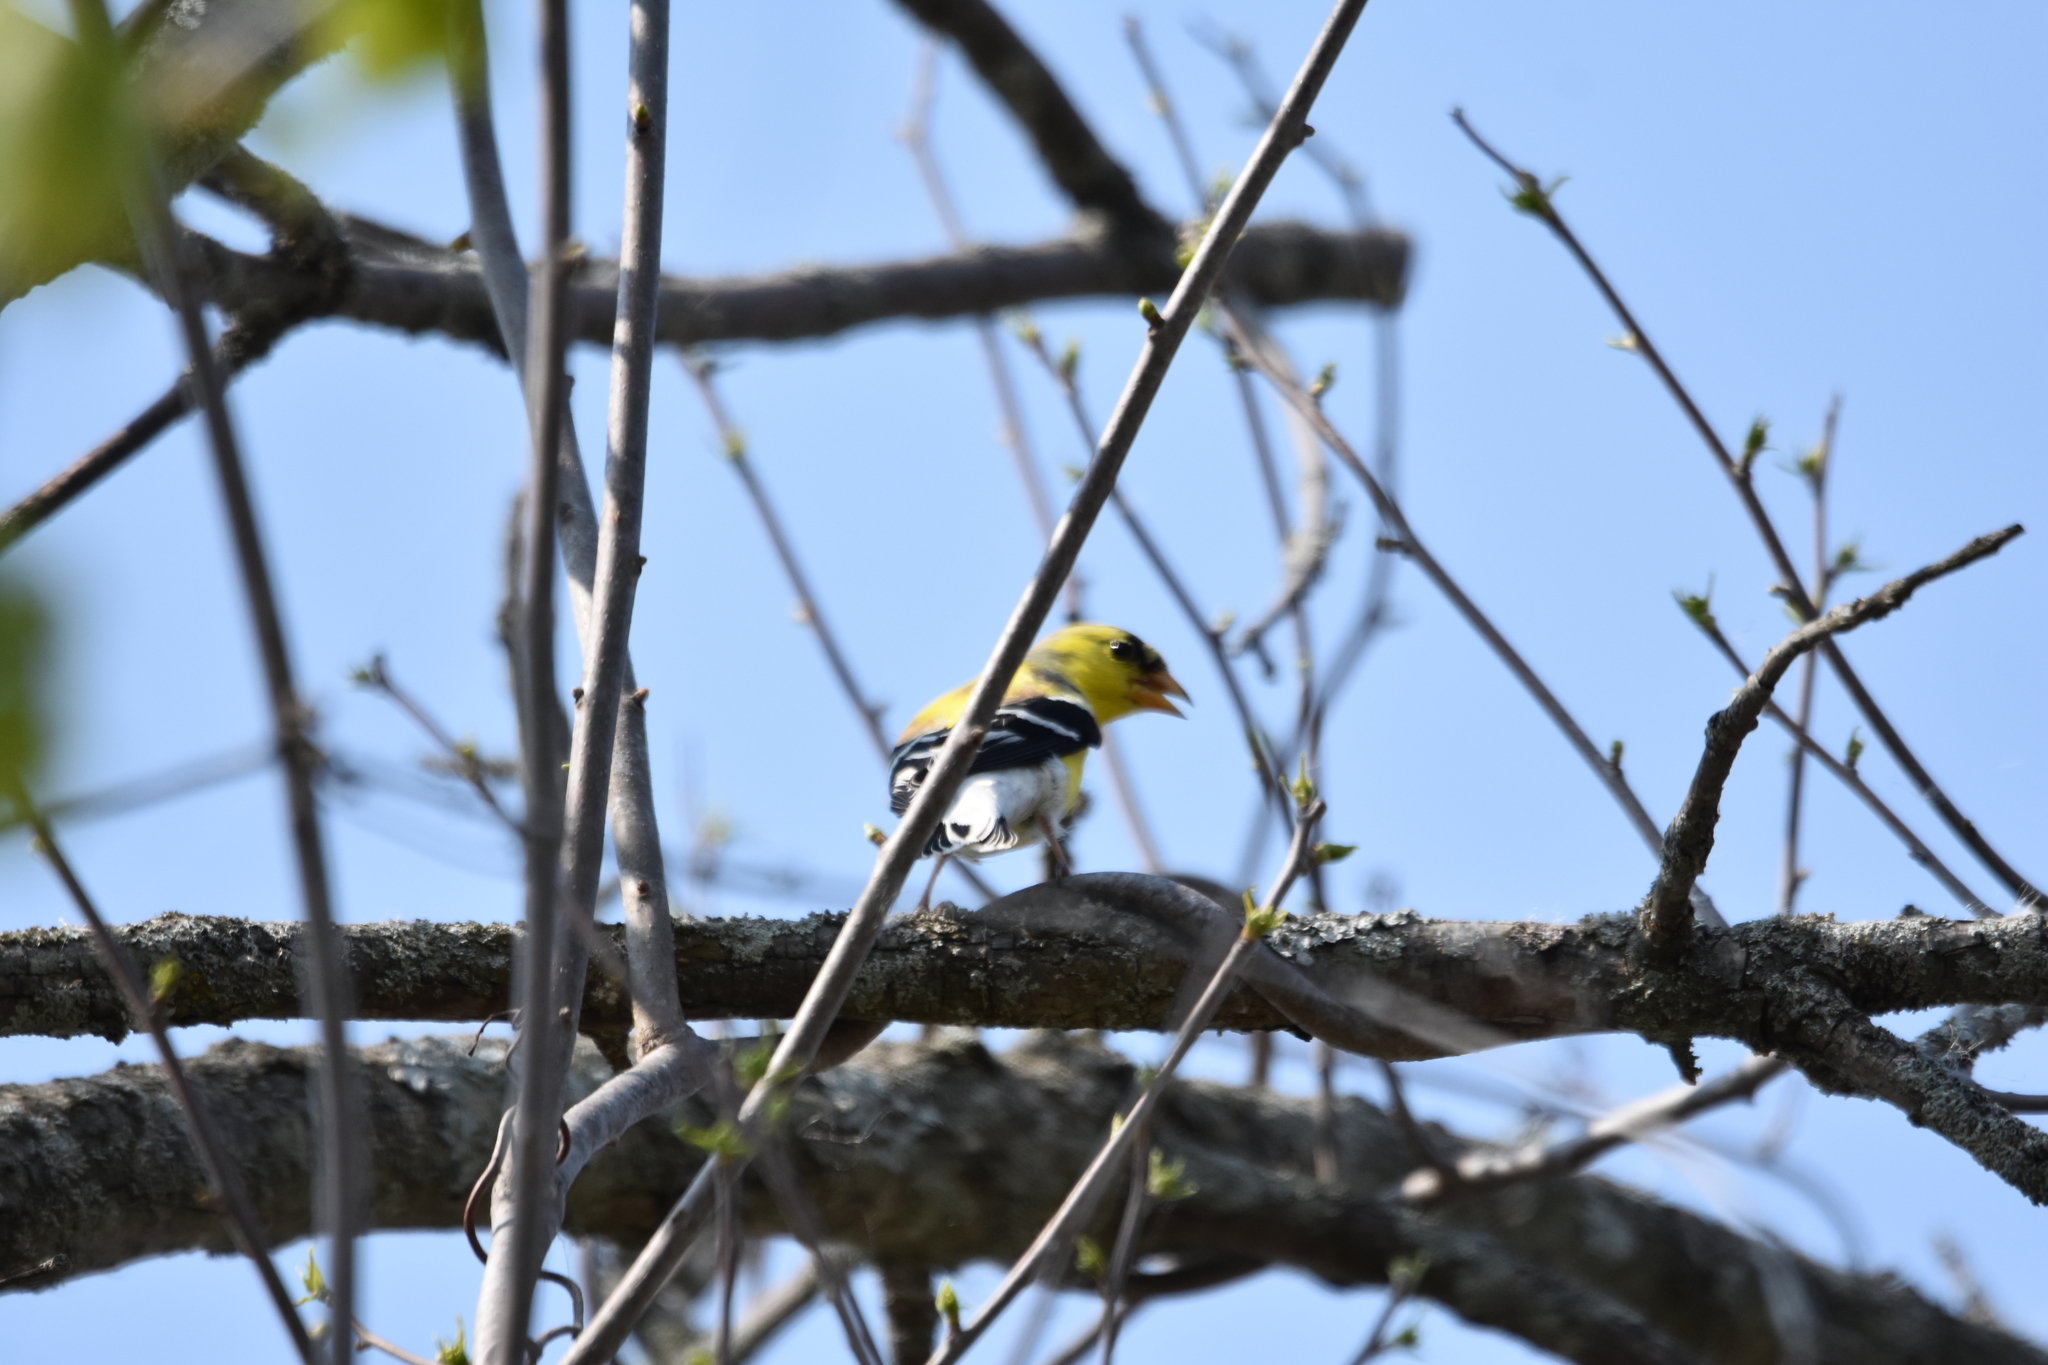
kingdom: Animalia
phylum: Chordata
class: Aves
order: Passeriformes
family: Fringillidae
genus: Spinus
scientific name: Spinus tristis
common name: American goldfinch
